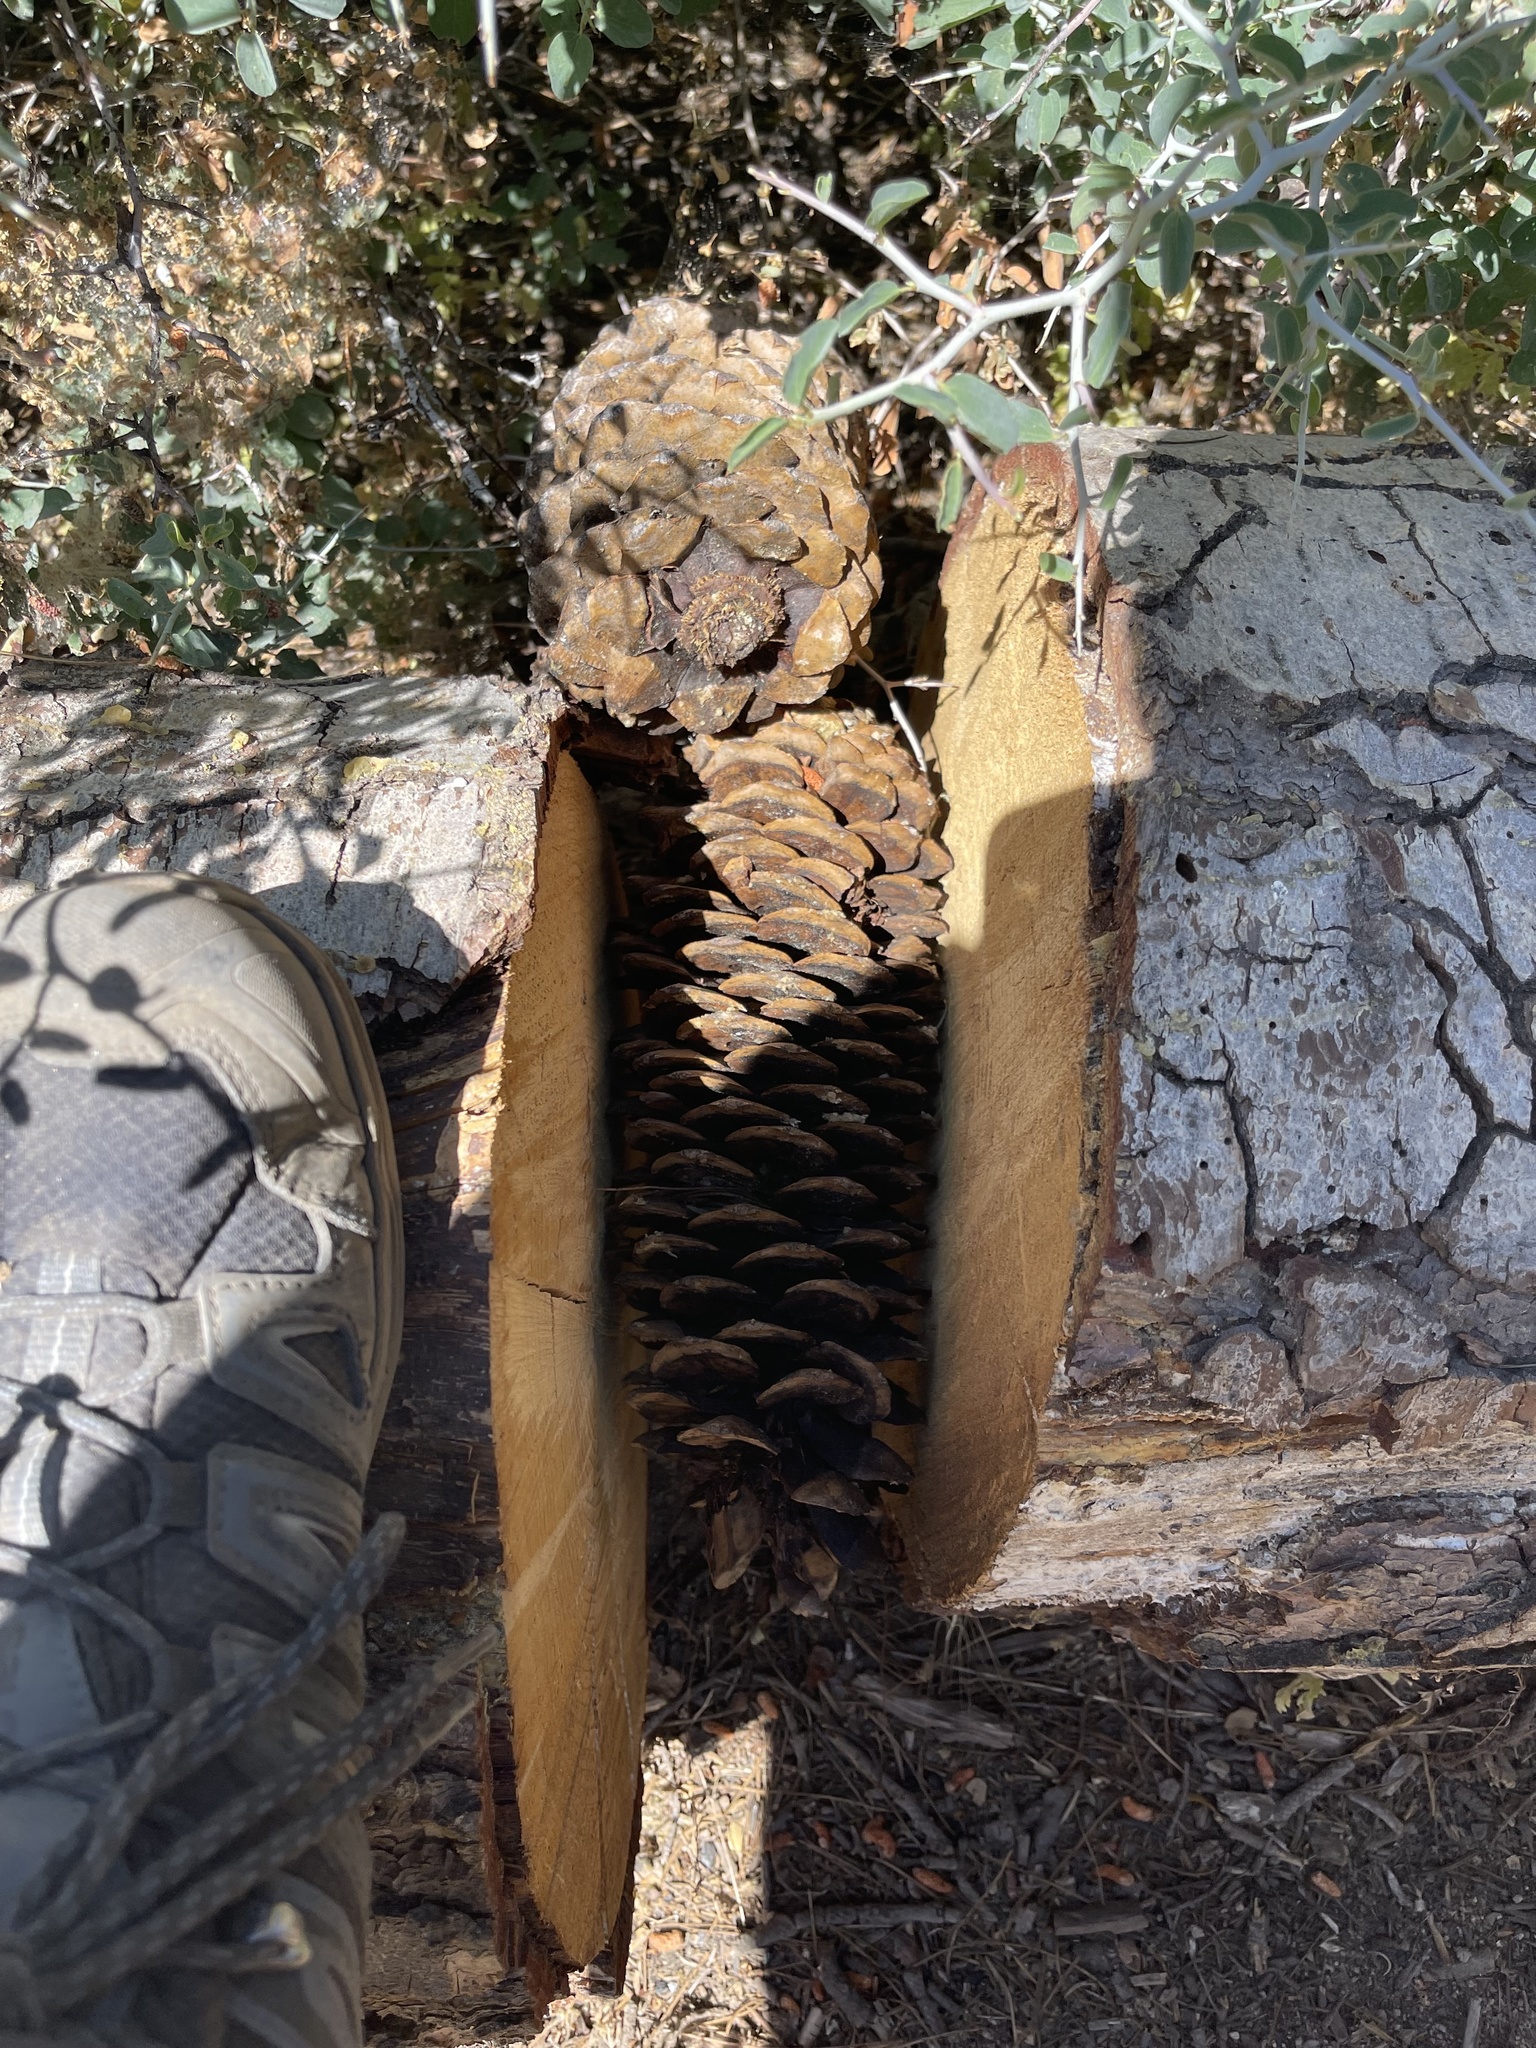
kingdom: Plantae
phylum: Tracheophyta
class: Pinopsida
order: Pinales
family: Pinaceae
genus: Pinus
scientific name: Pinus lambertiana
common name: Sugar pine
